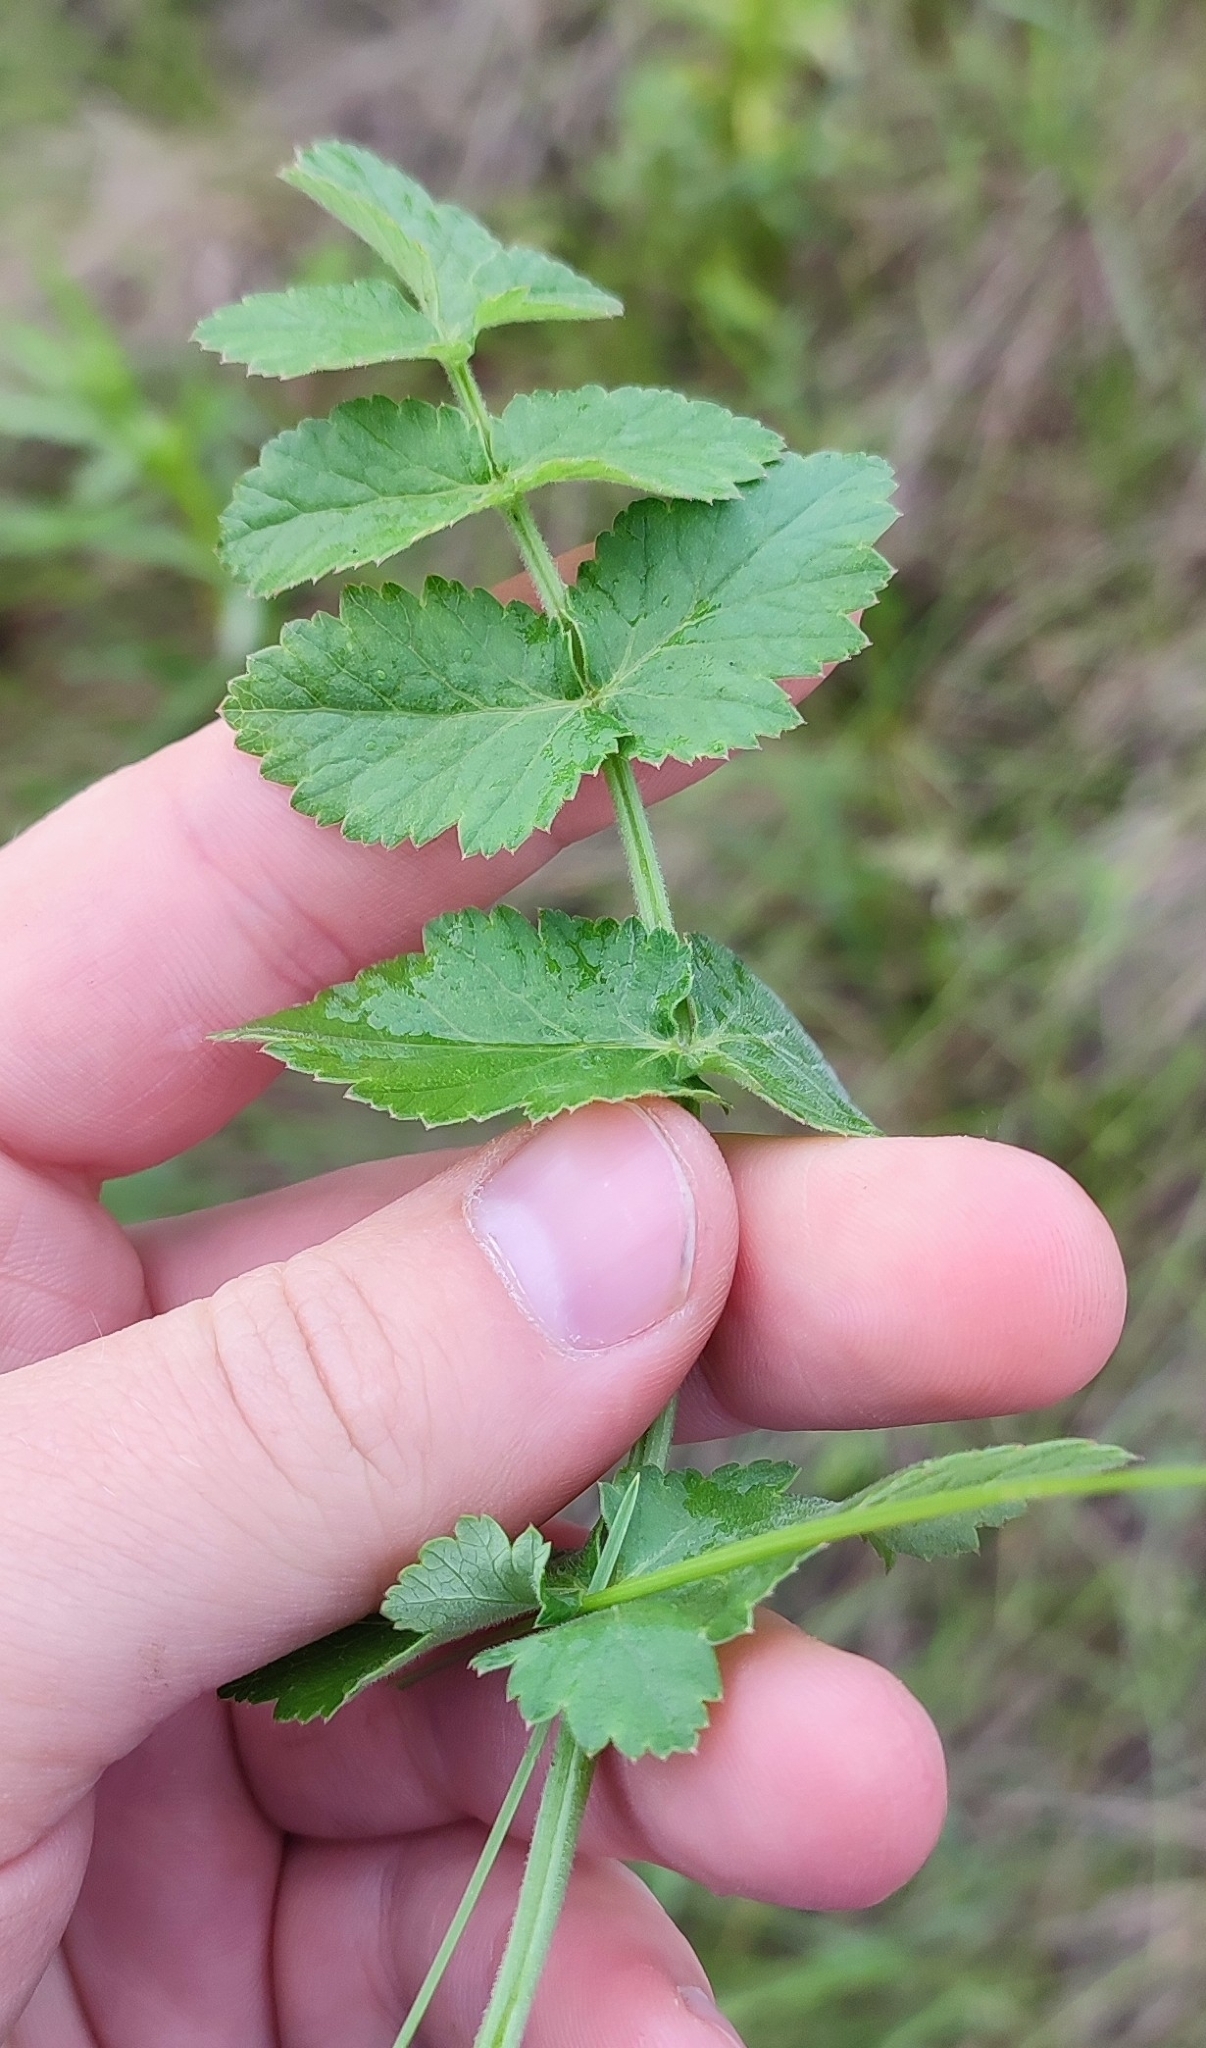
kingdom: Plantae
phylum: Tracheophyta
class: Magnoliopsida
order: Apiales
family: Apiaceae
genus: Pimpinella
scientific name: Pimpinella saxifraga
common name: Burnet-saxifrage
